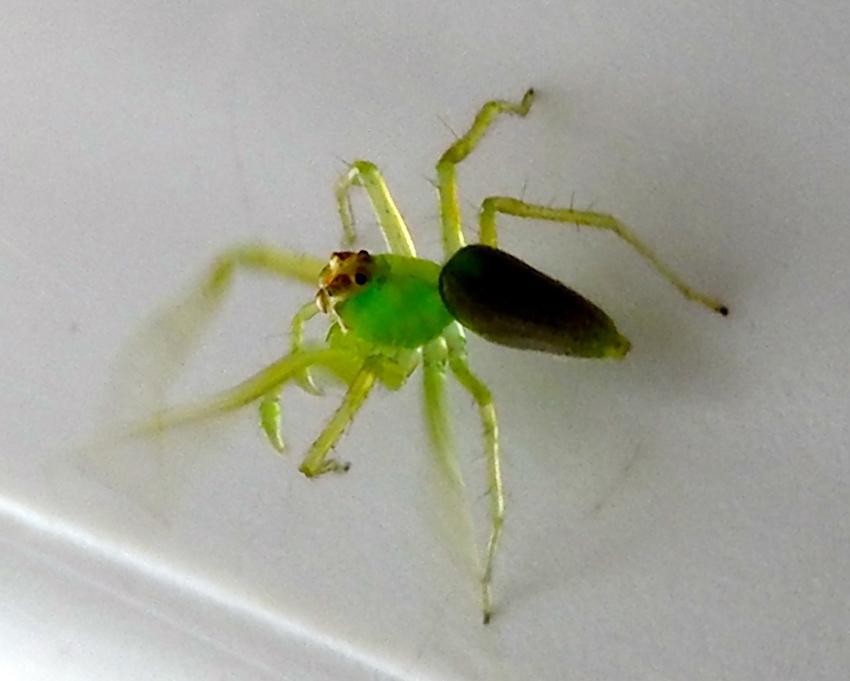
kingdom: Animalia
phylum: Arthropoda
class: Arachnida
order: Araneae
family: Salticidae
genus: Lyssomanes
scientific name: Lyssomanes
